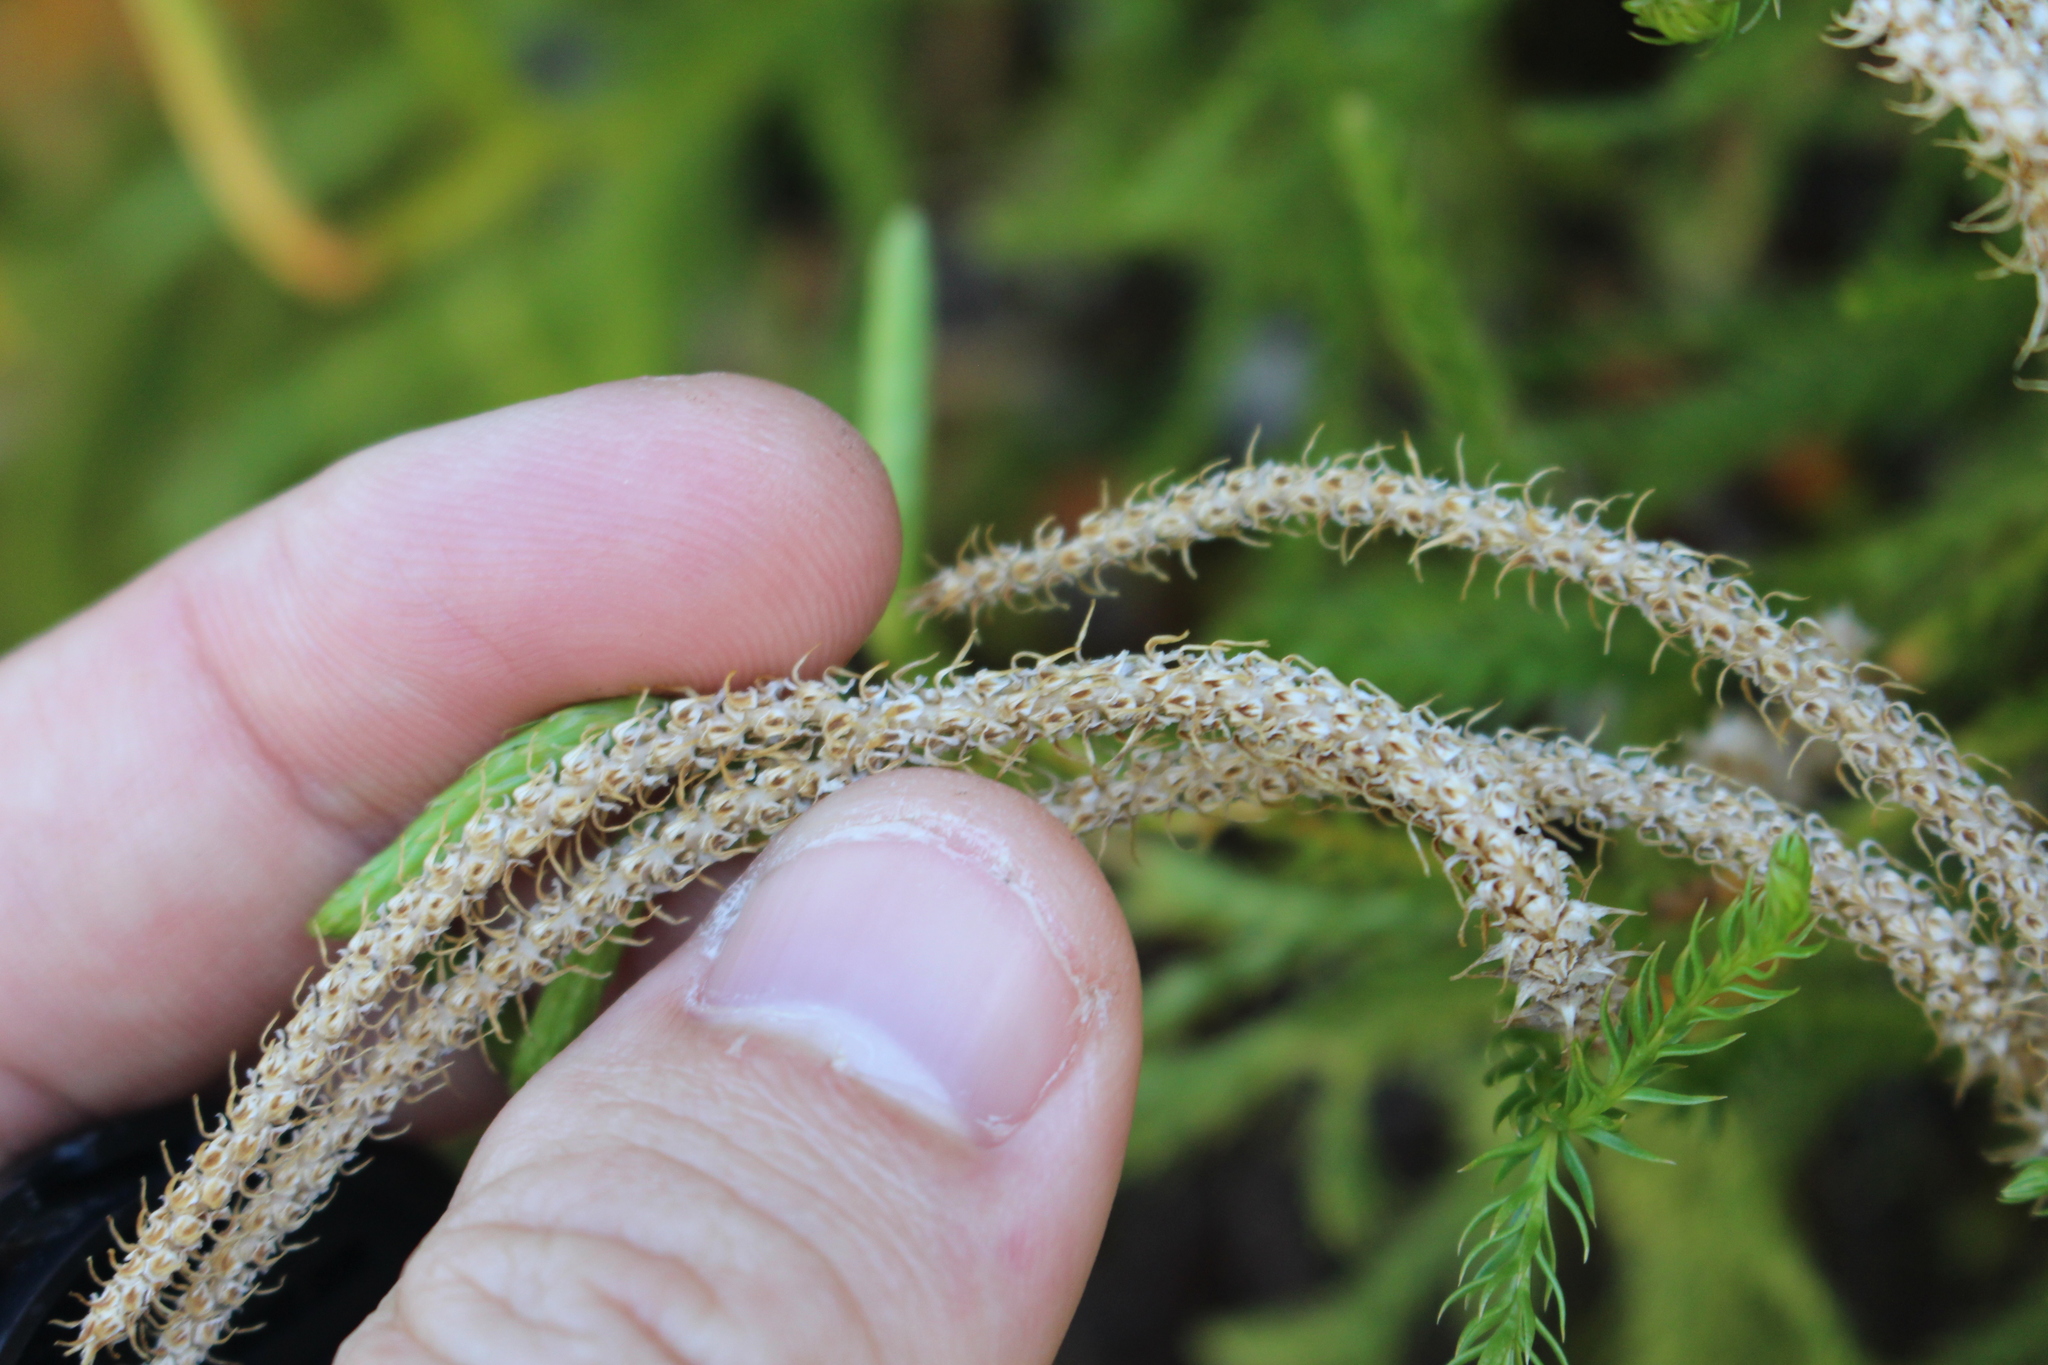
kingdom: Plantae
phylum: Tracheophyta
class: Lycopodiopsida
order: Lycopodiales
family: Lycopodiaceae
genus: Austrolycopodium
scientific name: Austrolycopodium fastigiatum
